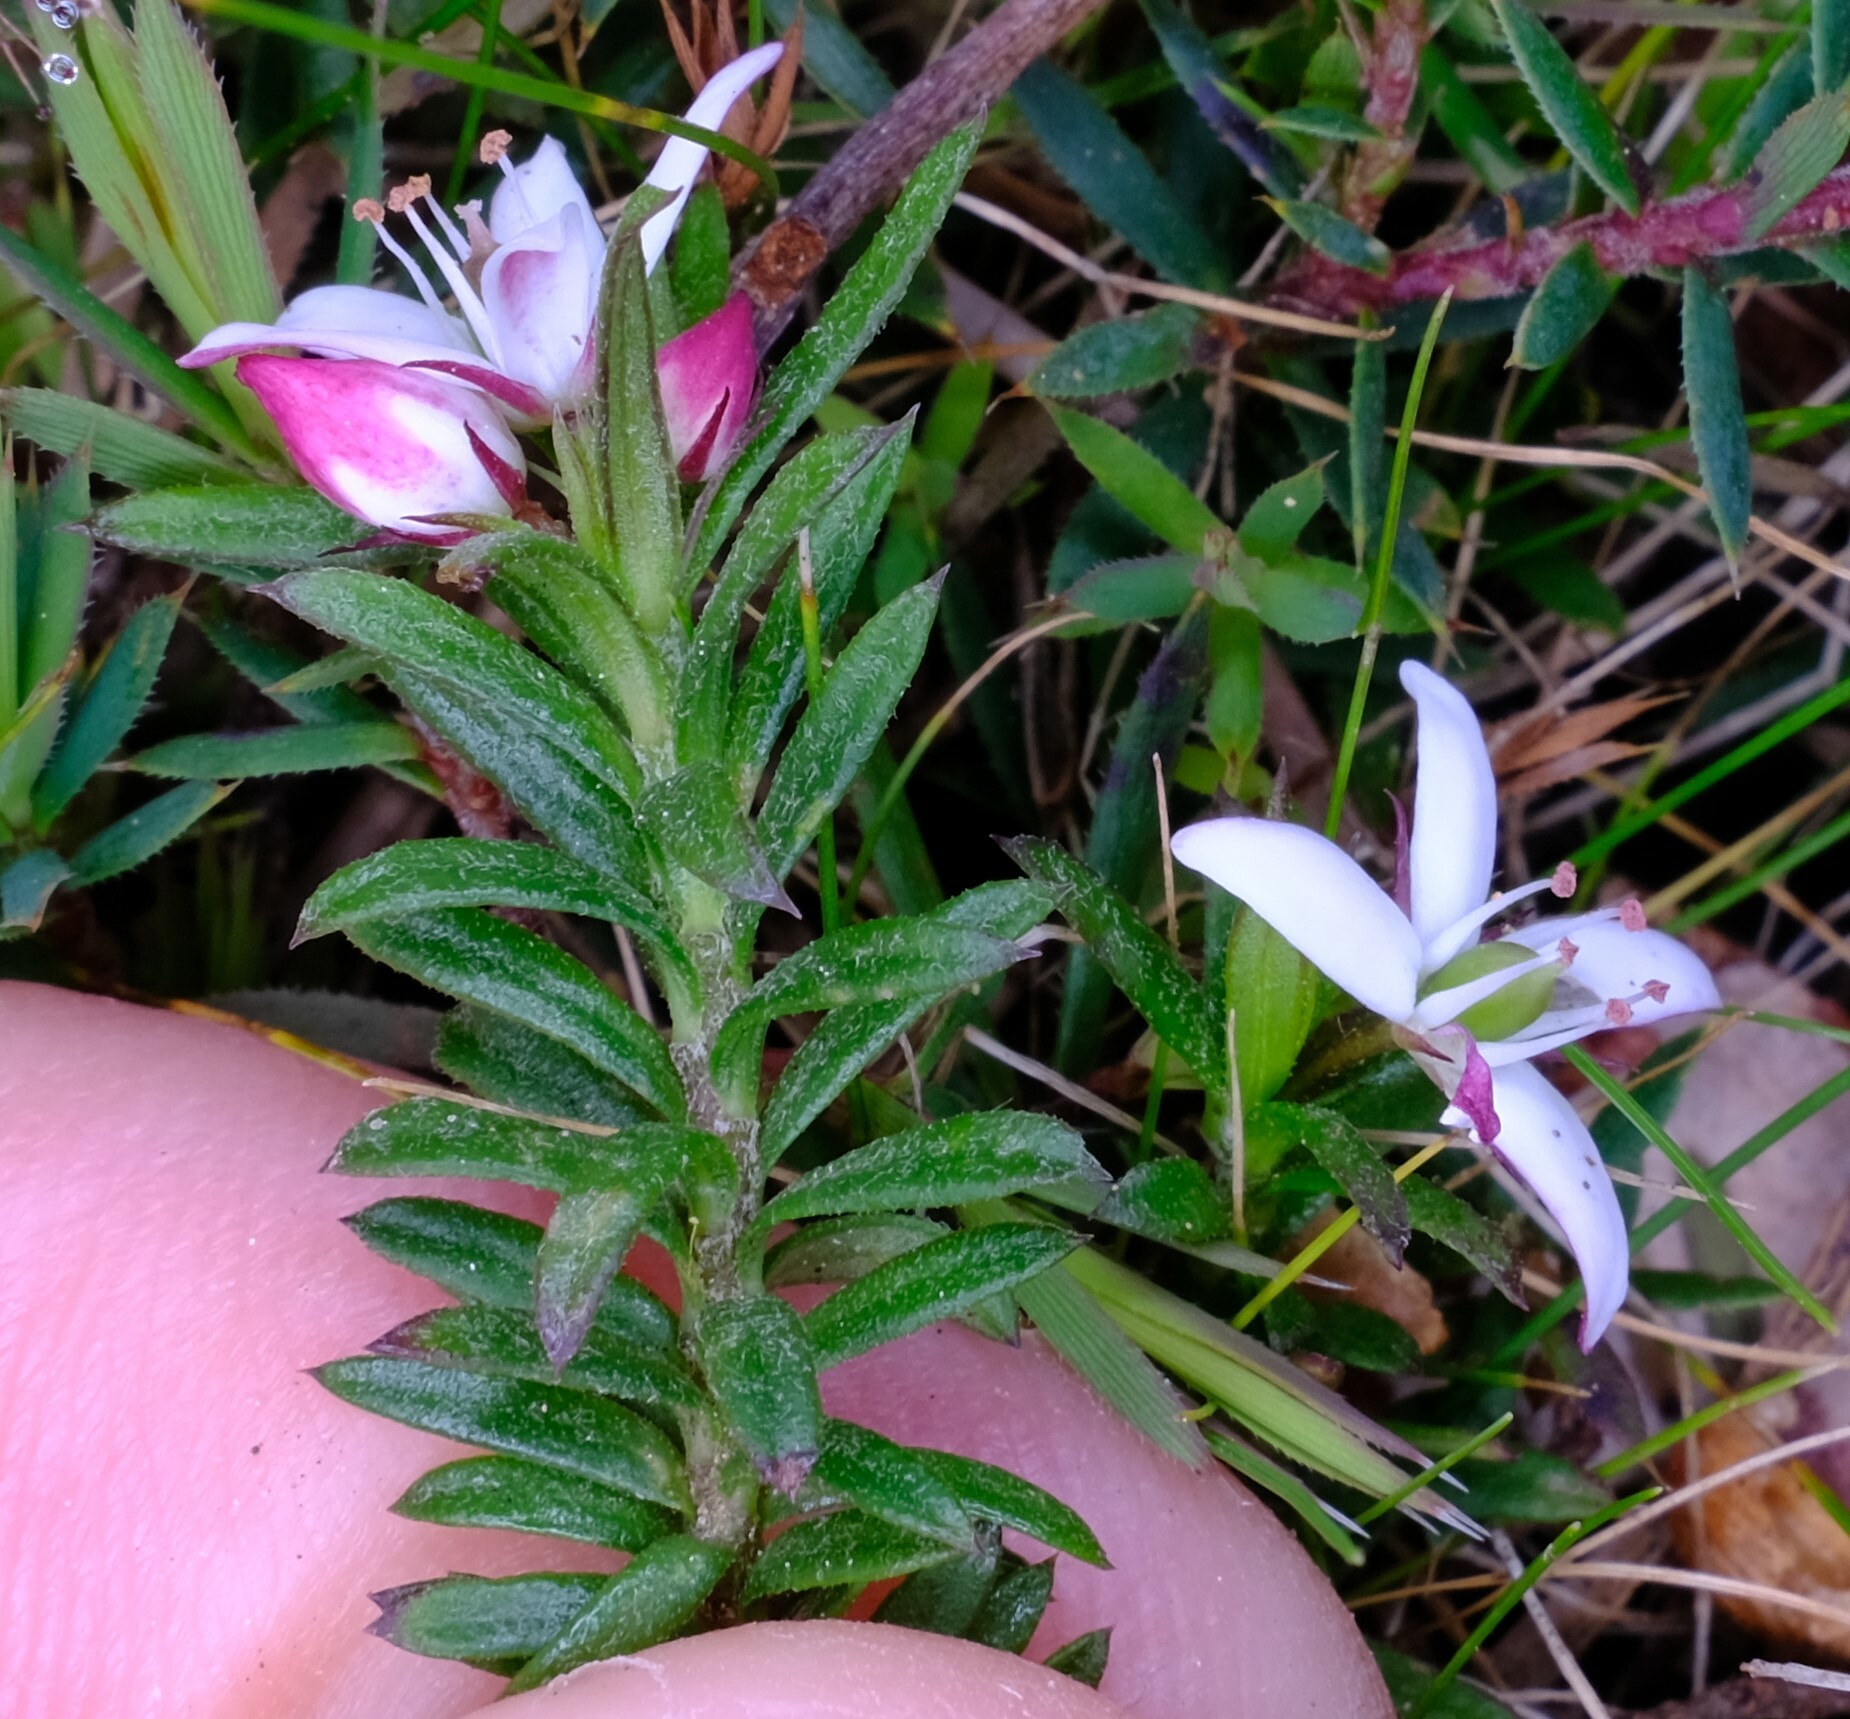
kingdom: Plantae
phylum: Tracheophyta
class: Magnoliopsida
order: Apiales
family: Pittosporaceae
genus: Rhytidosporum
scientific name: Rhytidosporum procumbens
